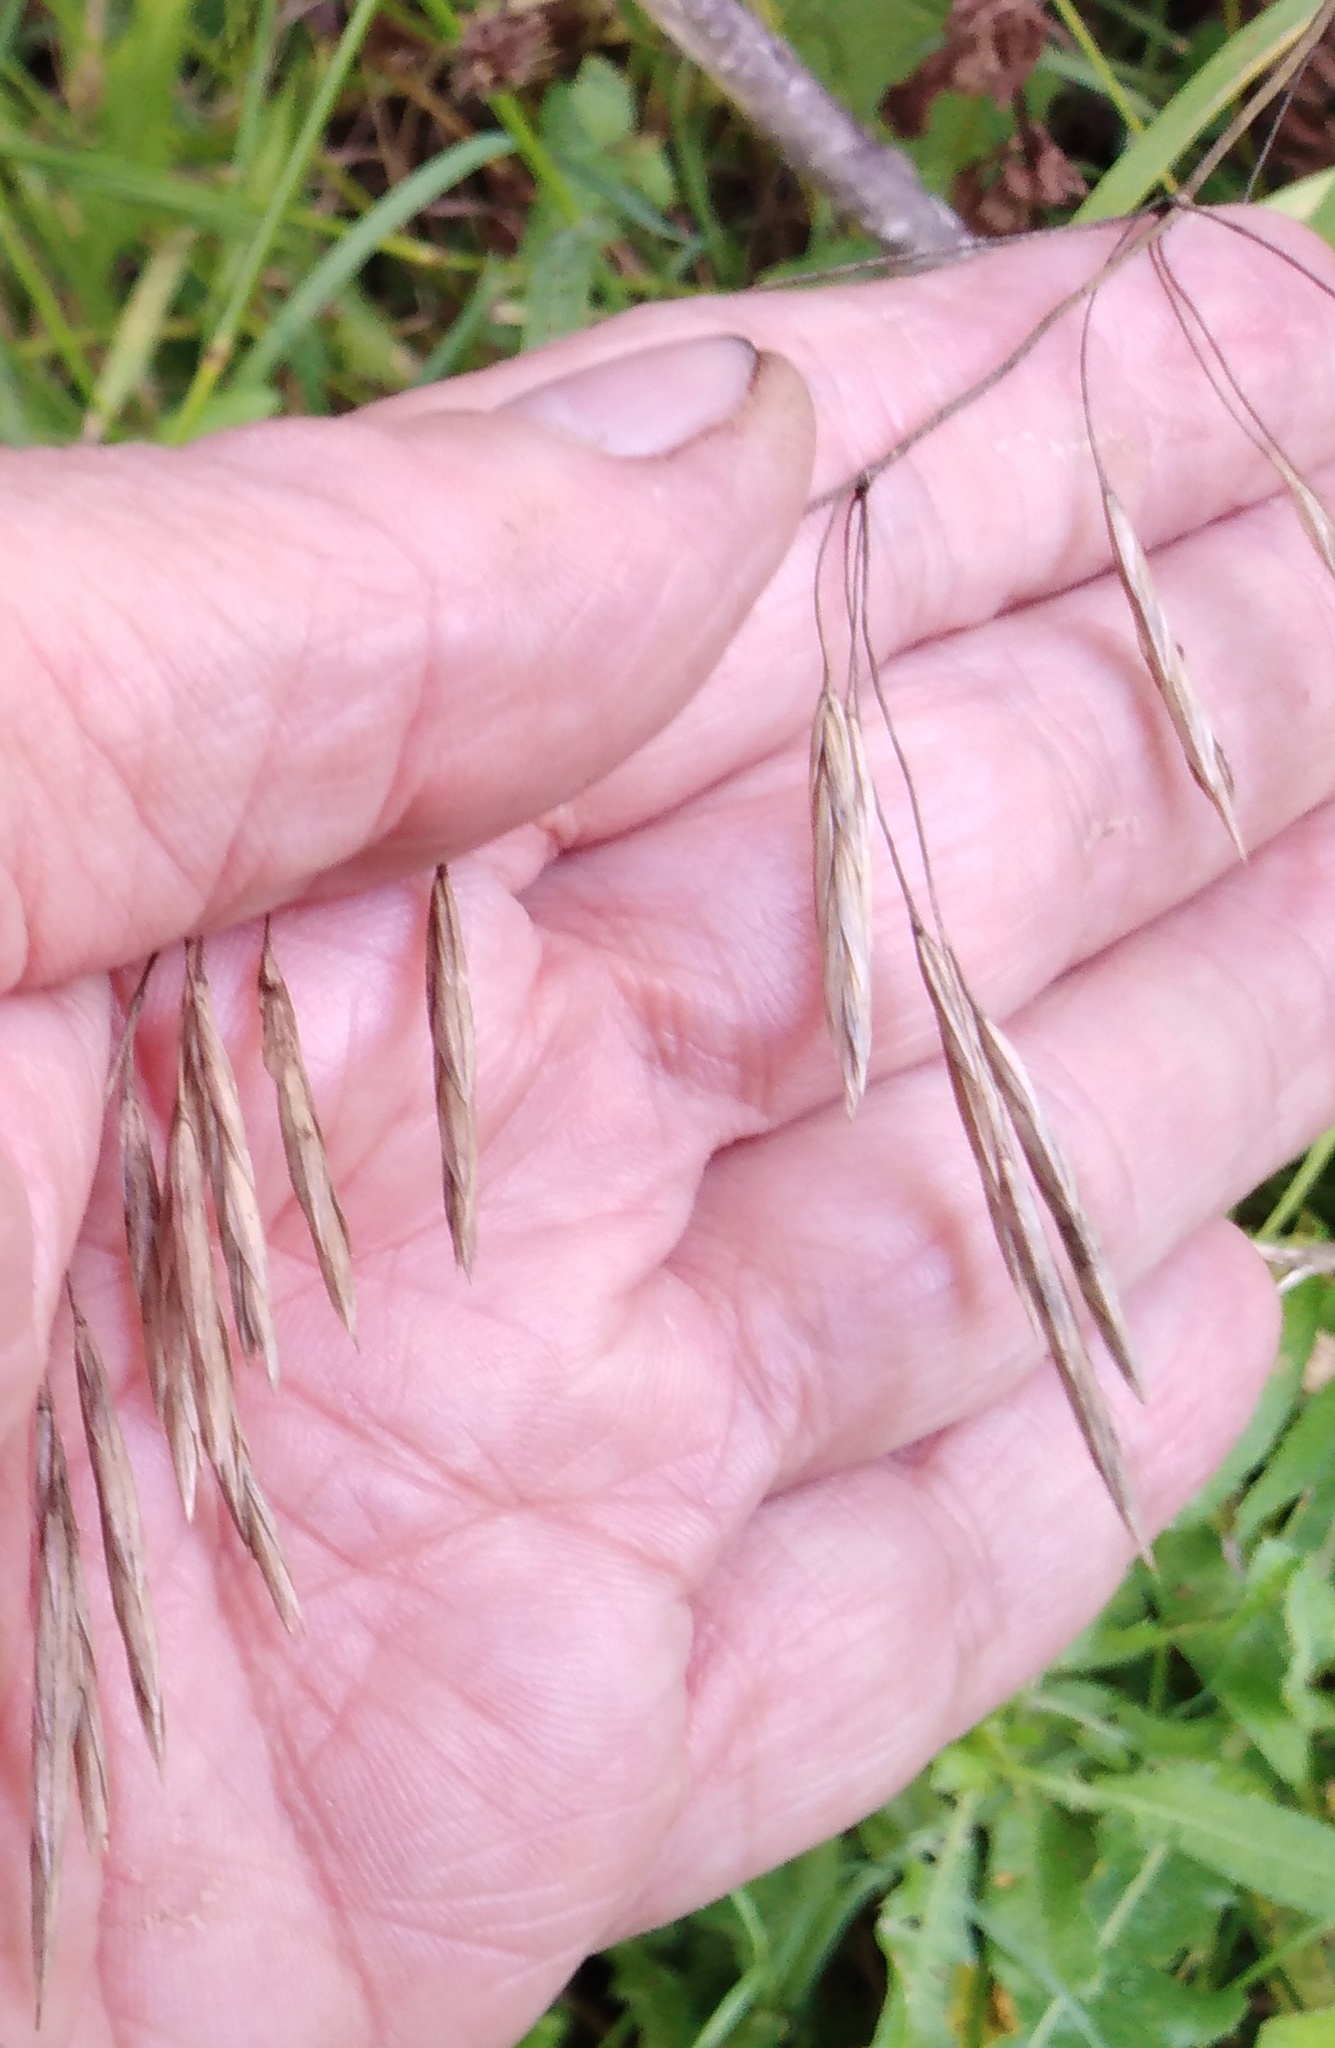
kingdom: Plantae
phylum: Tracheophyta
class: Liliopsida
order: Poales
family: Poaceae
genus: Bromus
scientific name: Bromus inermis
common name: Smooth brome
